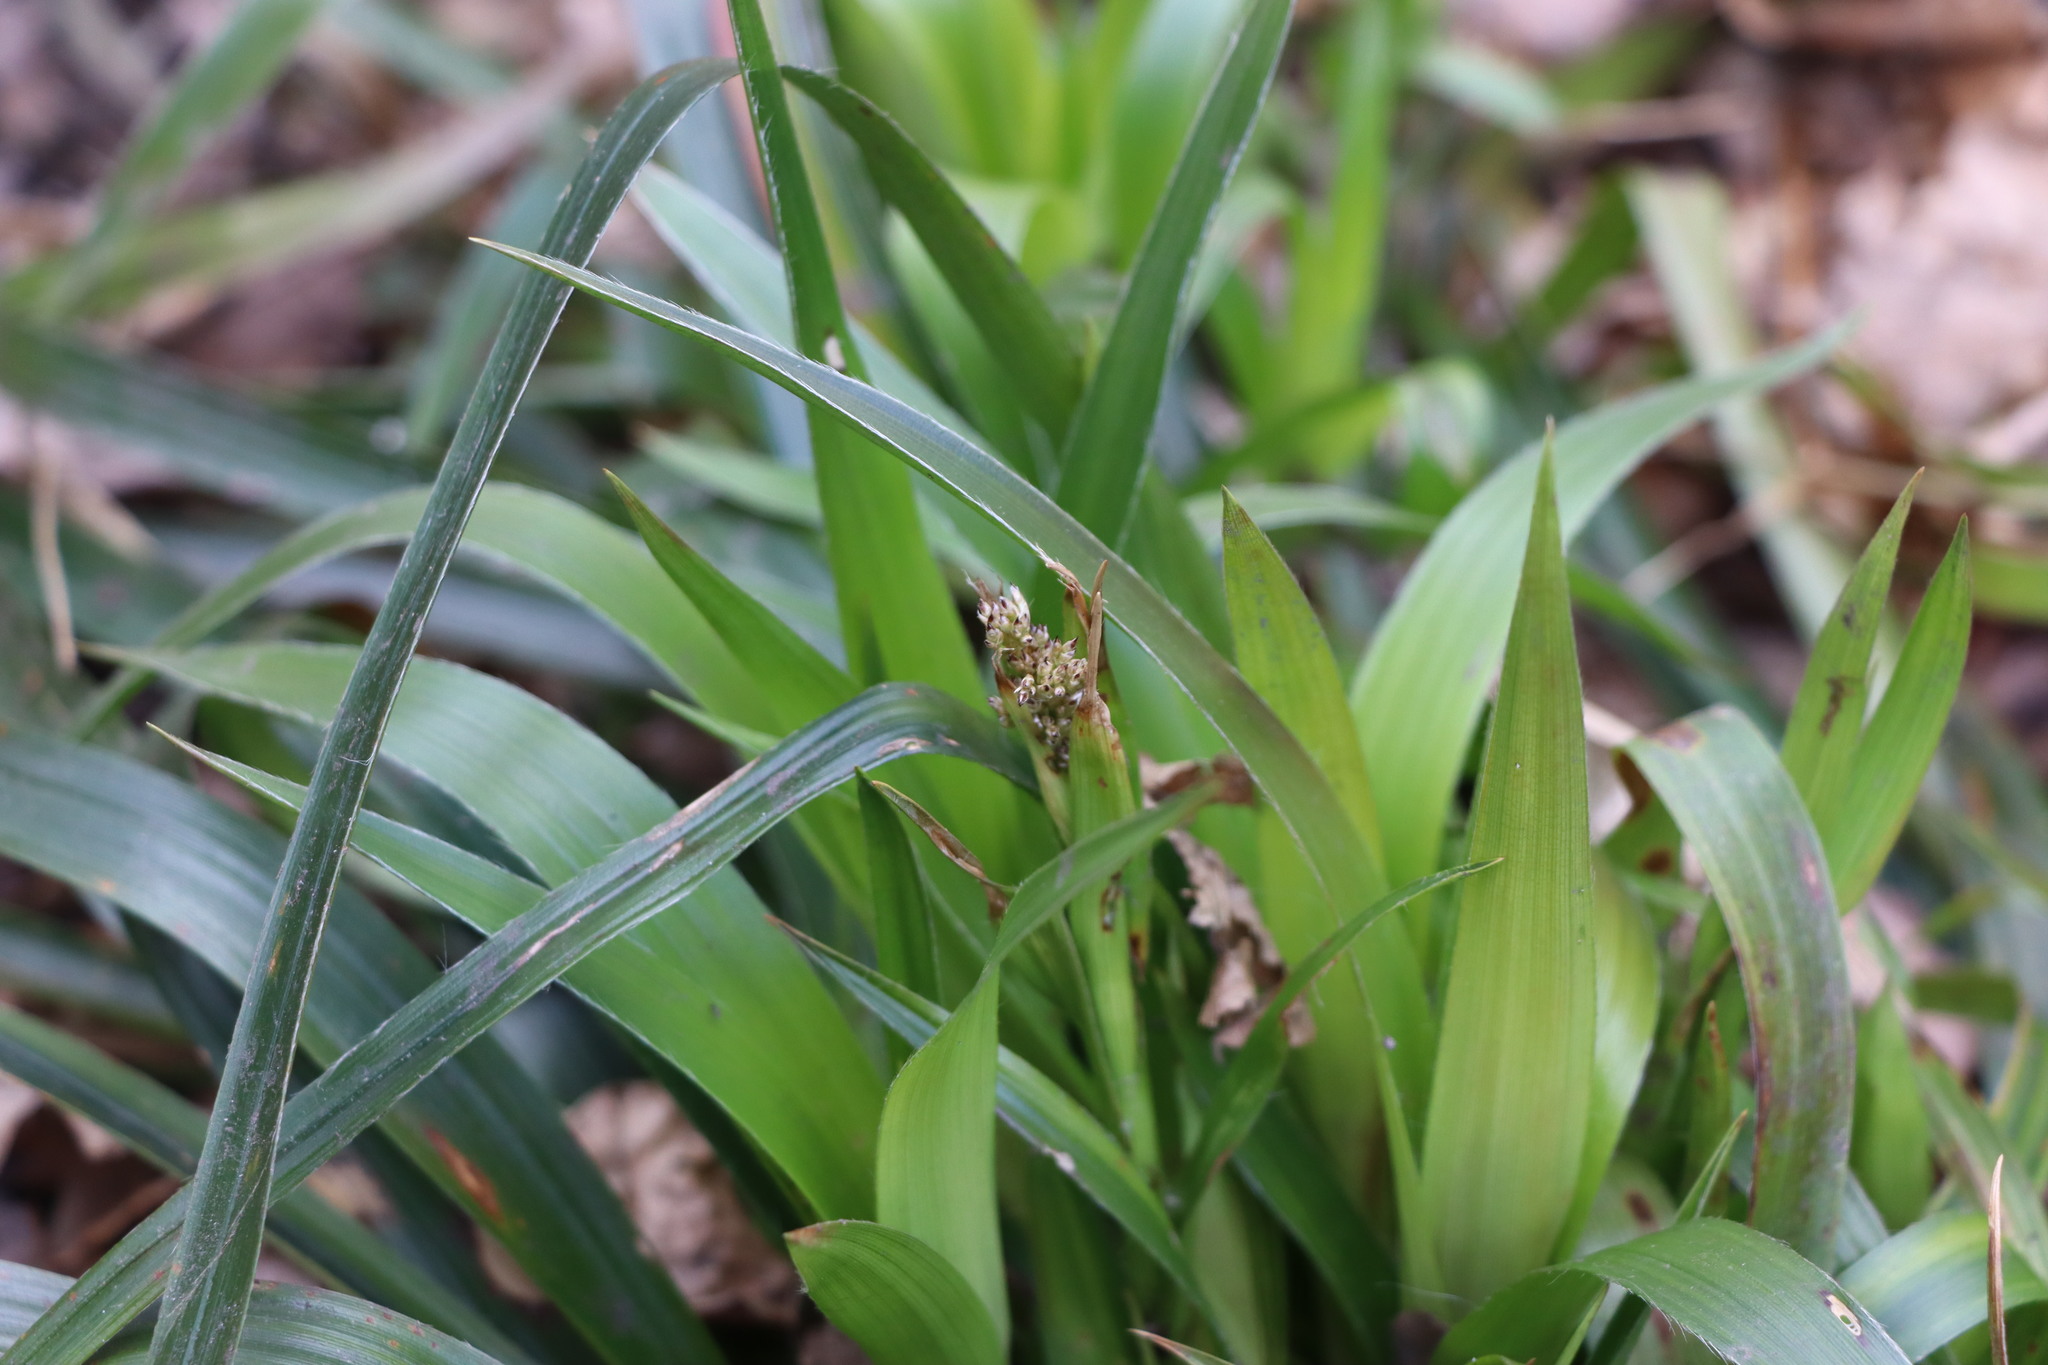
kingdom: Plantae
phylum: Tracheophyta
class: Liliopsida
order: Poales
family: Juncaceae
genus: Luzula
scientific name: Luzula sylvatica
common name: Great wood-rush
